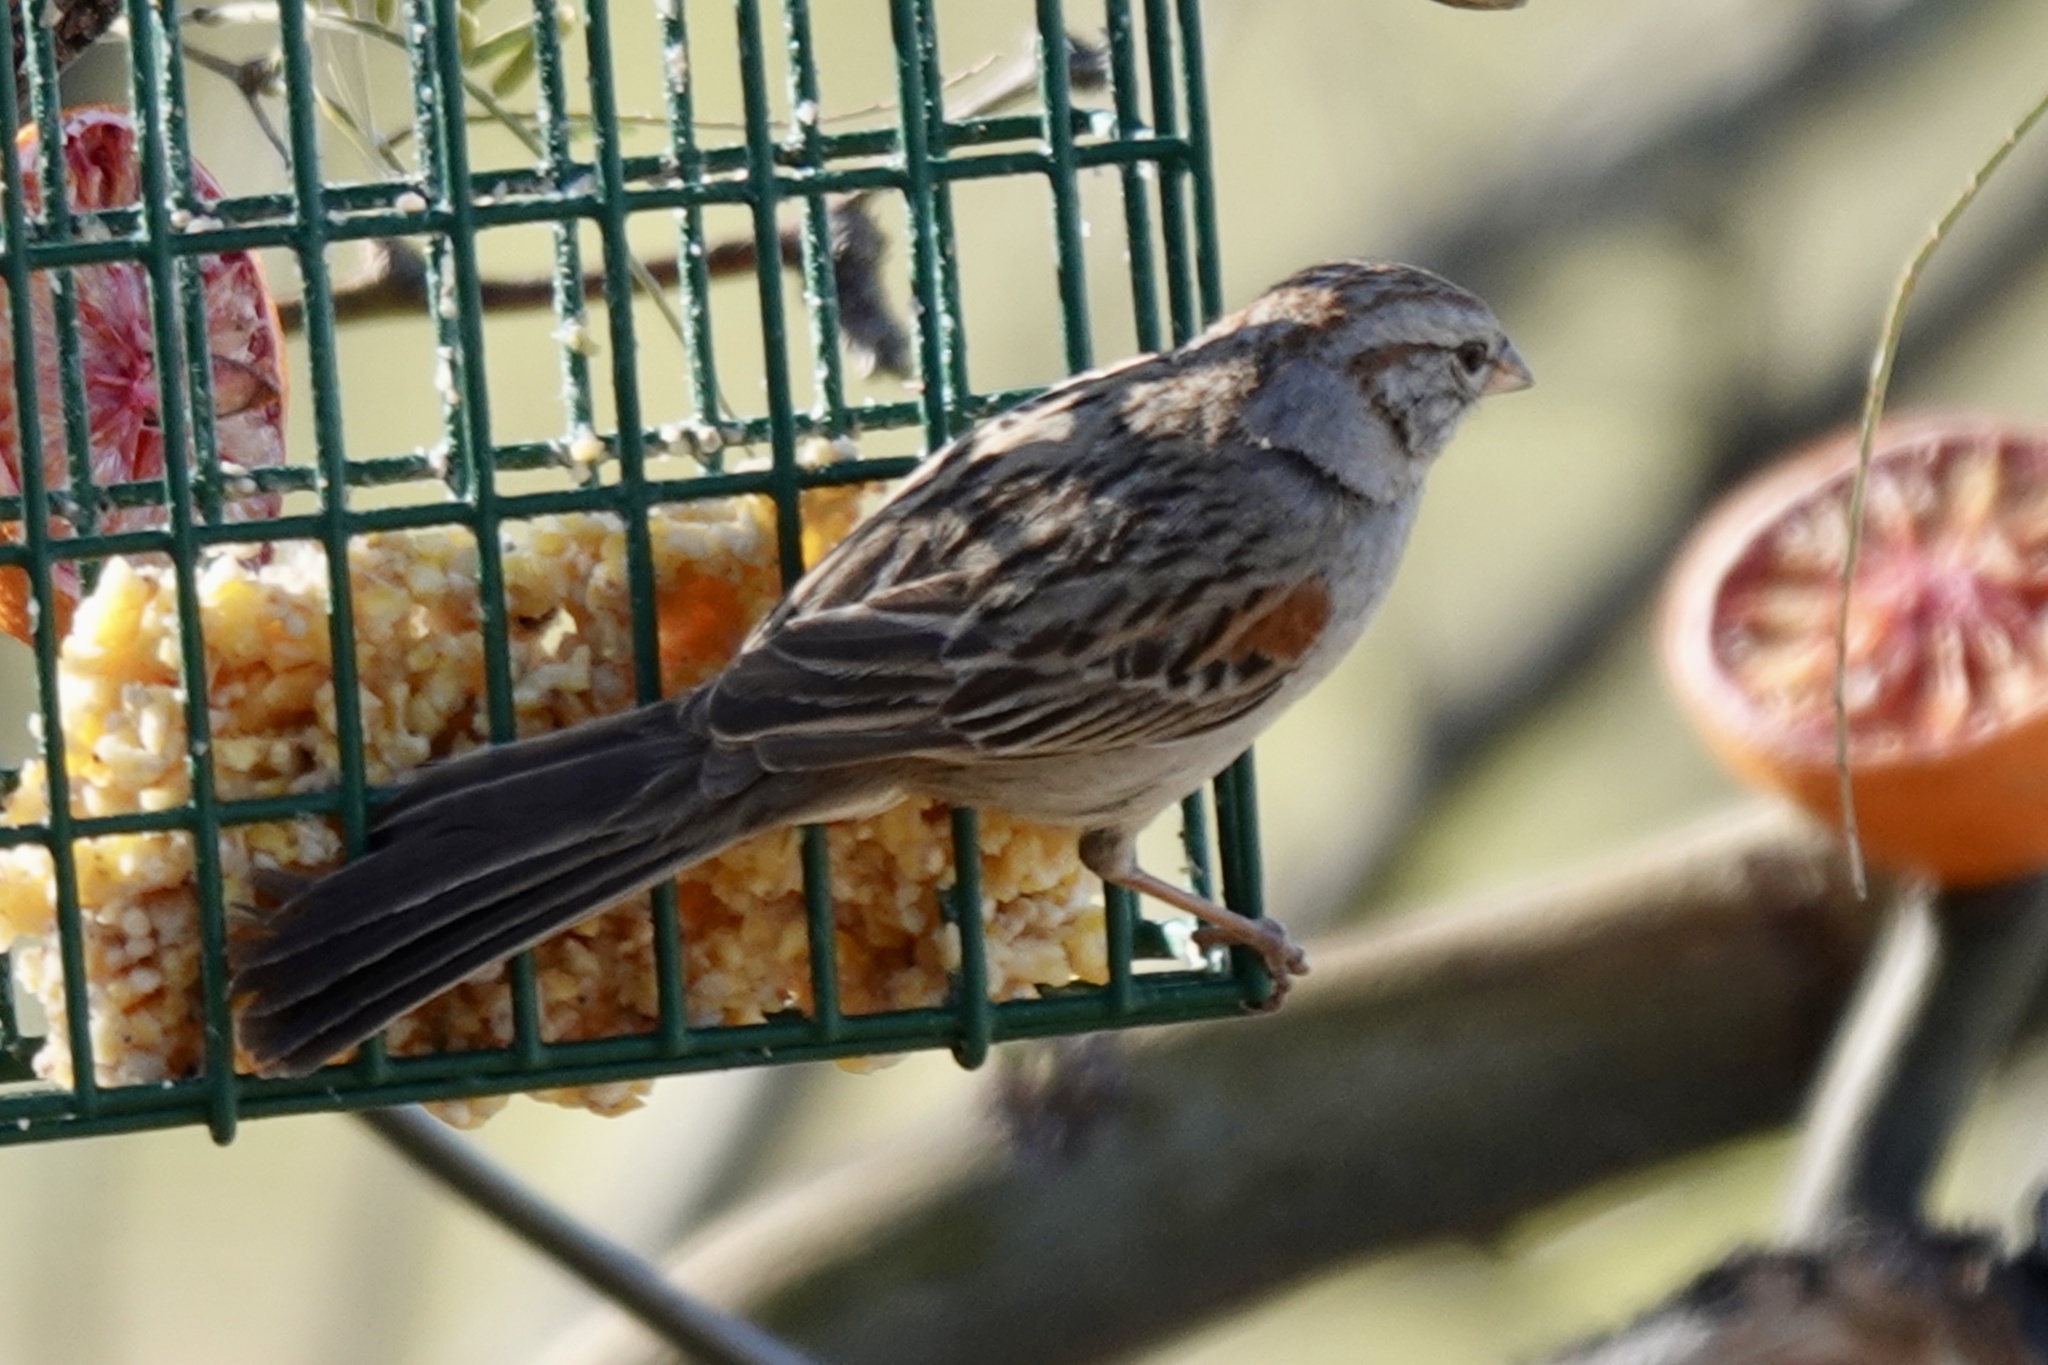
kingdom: Animalia
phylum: Chordata
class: Aves
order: Passeriformes
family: Passerellidae
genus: Peucaea
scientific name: Peucaea carpalis
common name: Rufous-winged sparrow
